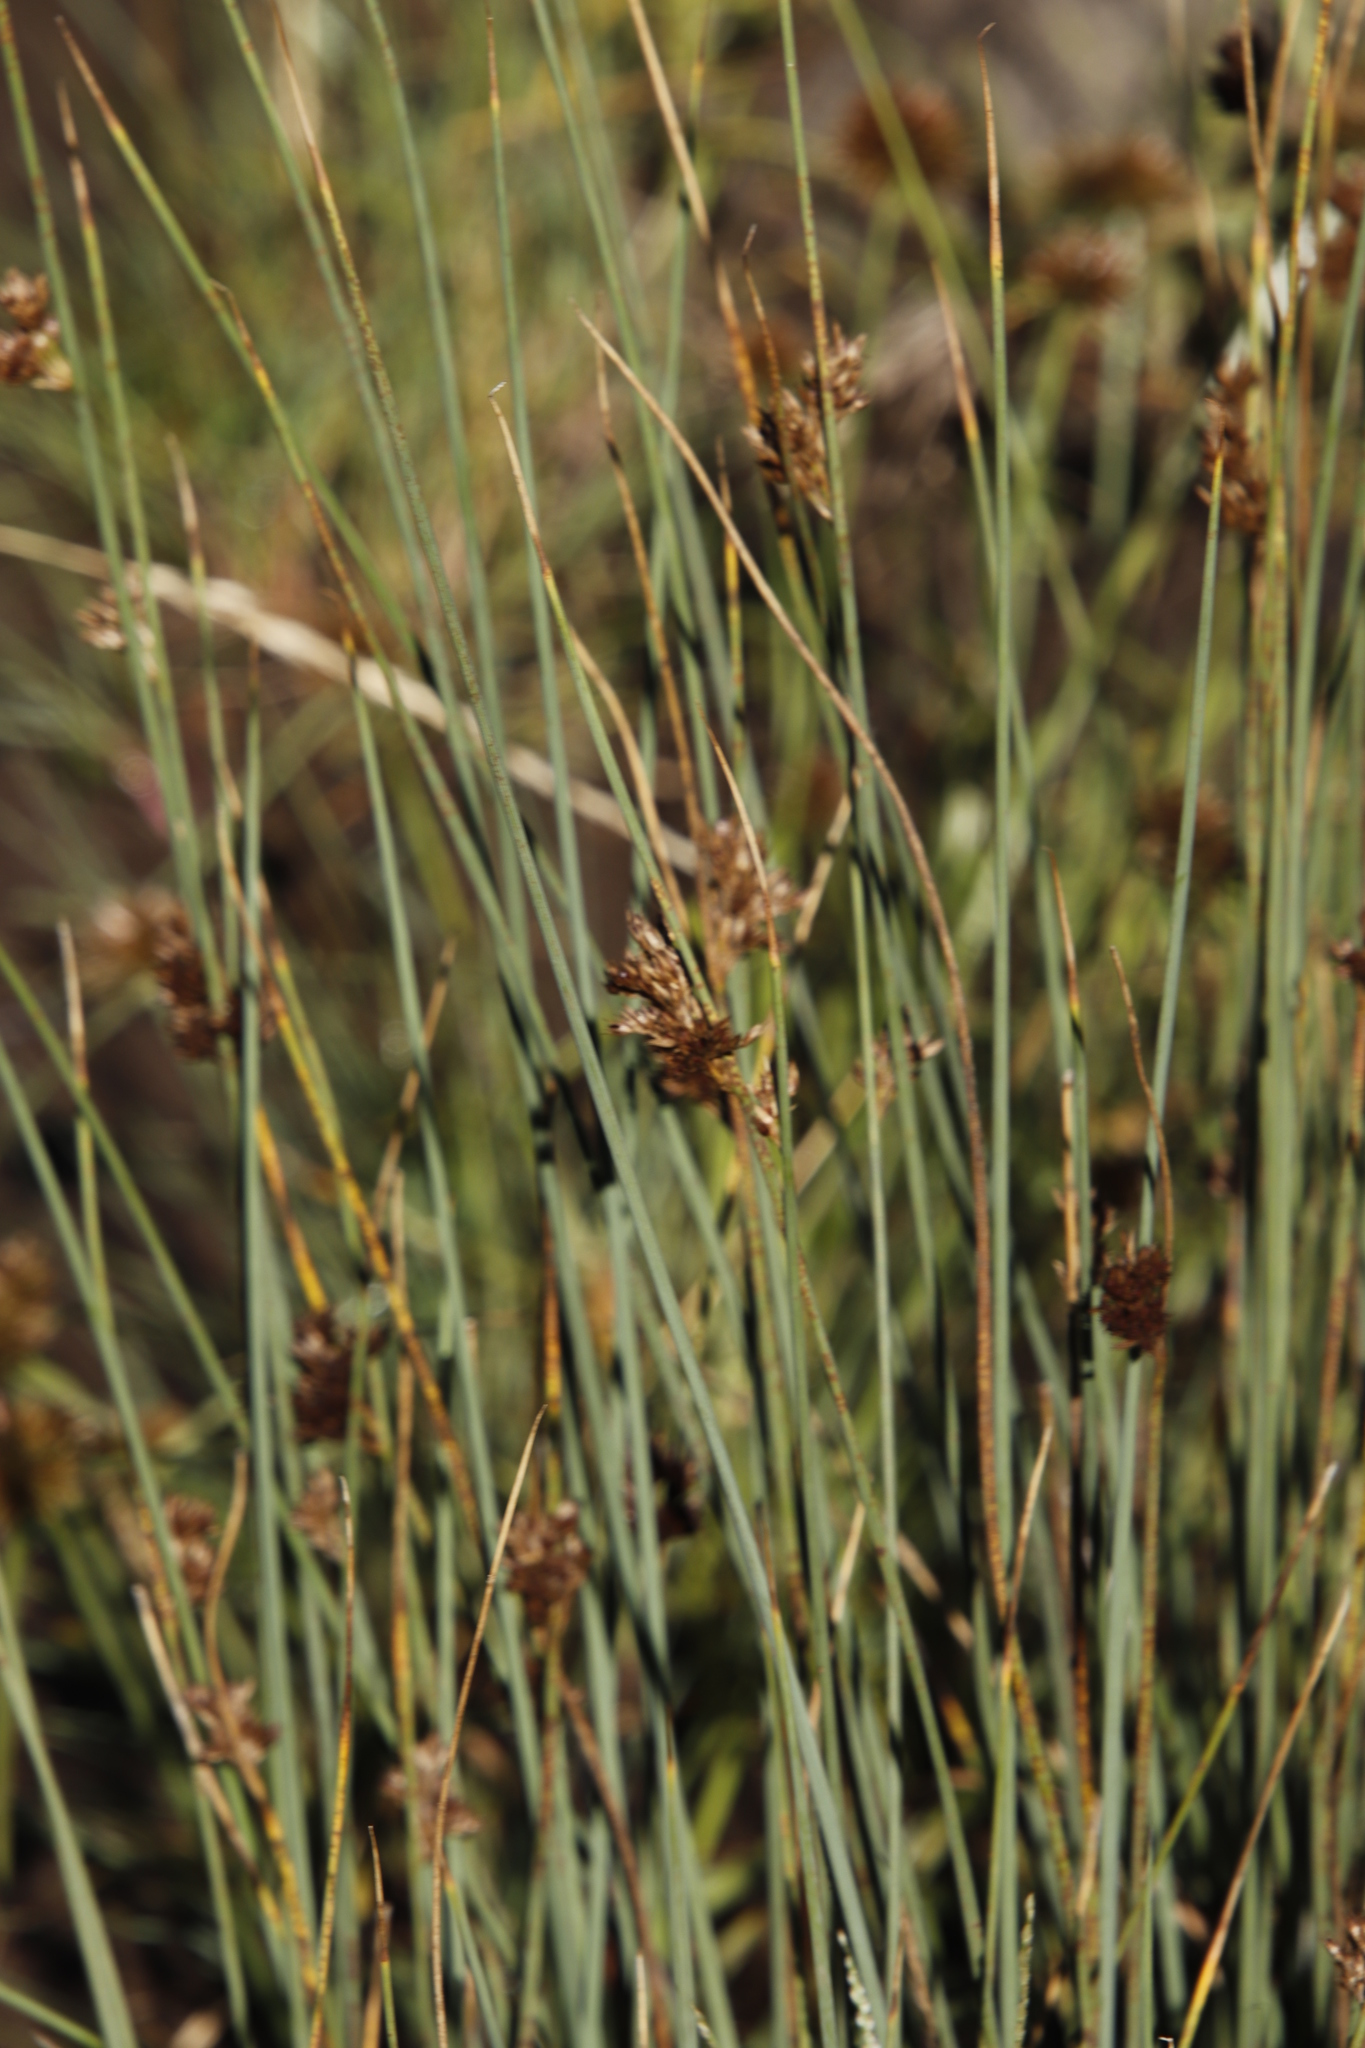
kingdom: Plantae
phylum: Tracheophyta
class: Liliopsida
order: Poales
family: Juncaceae
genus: Juncus
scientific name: Juncus inflexus
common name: Hard rush
